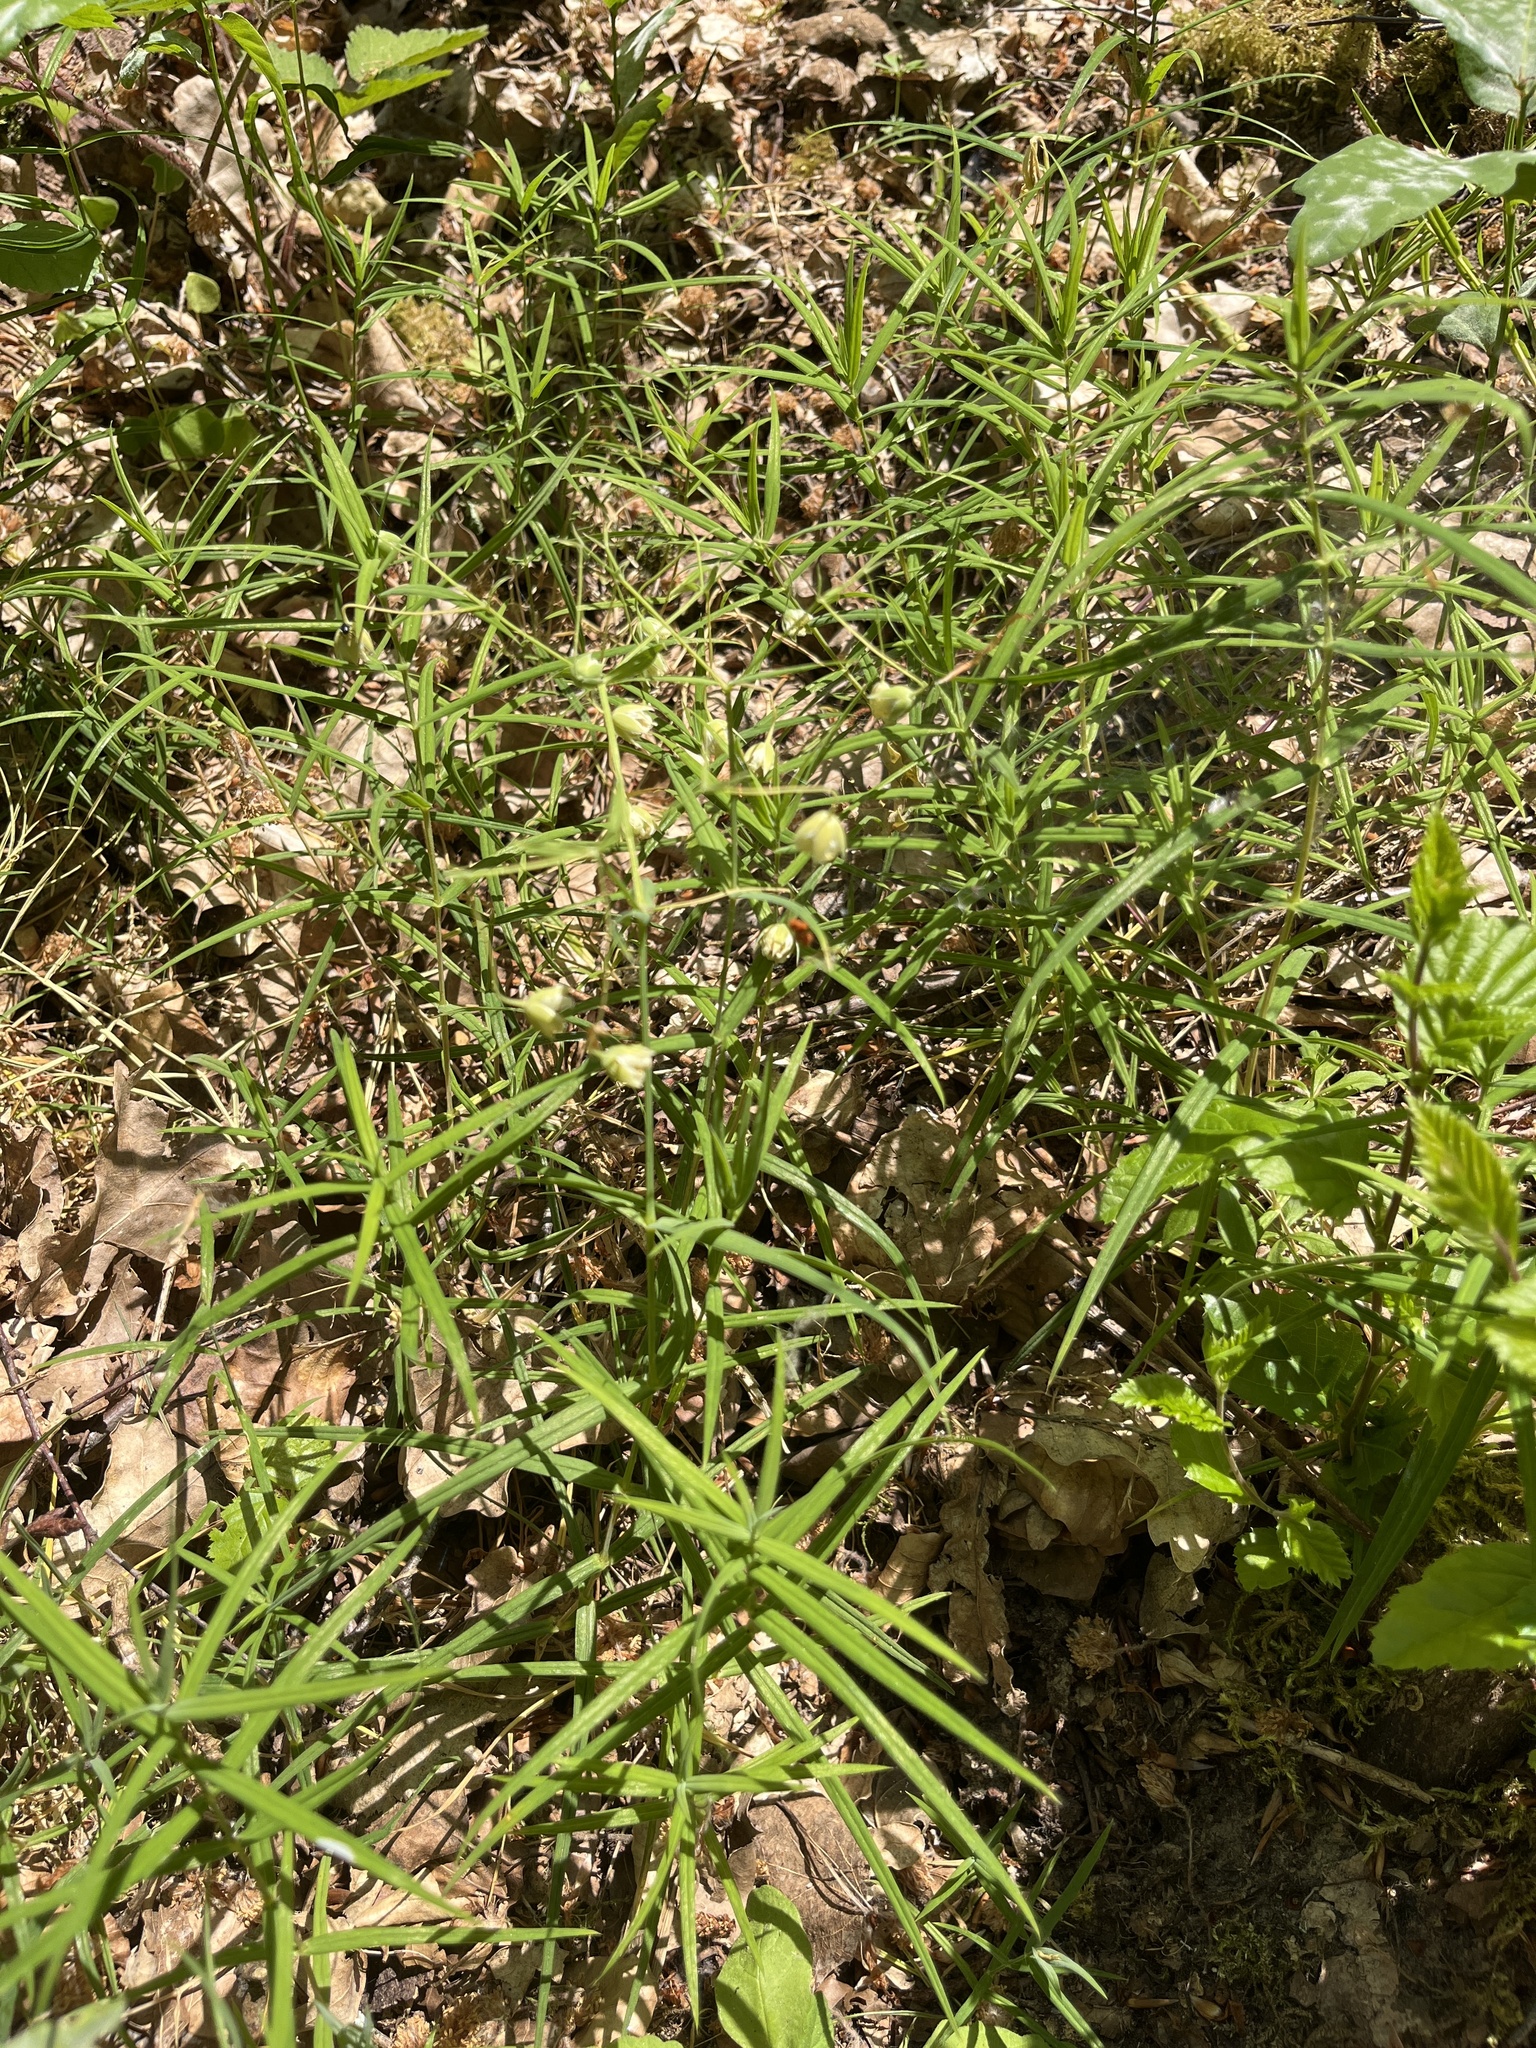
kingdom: Plantae
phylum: Tracheophyta
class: Magnoliopsida
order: Caryophyllales
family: Caryophyllaceae
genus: Rabelera
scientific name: Rabelera holostea
